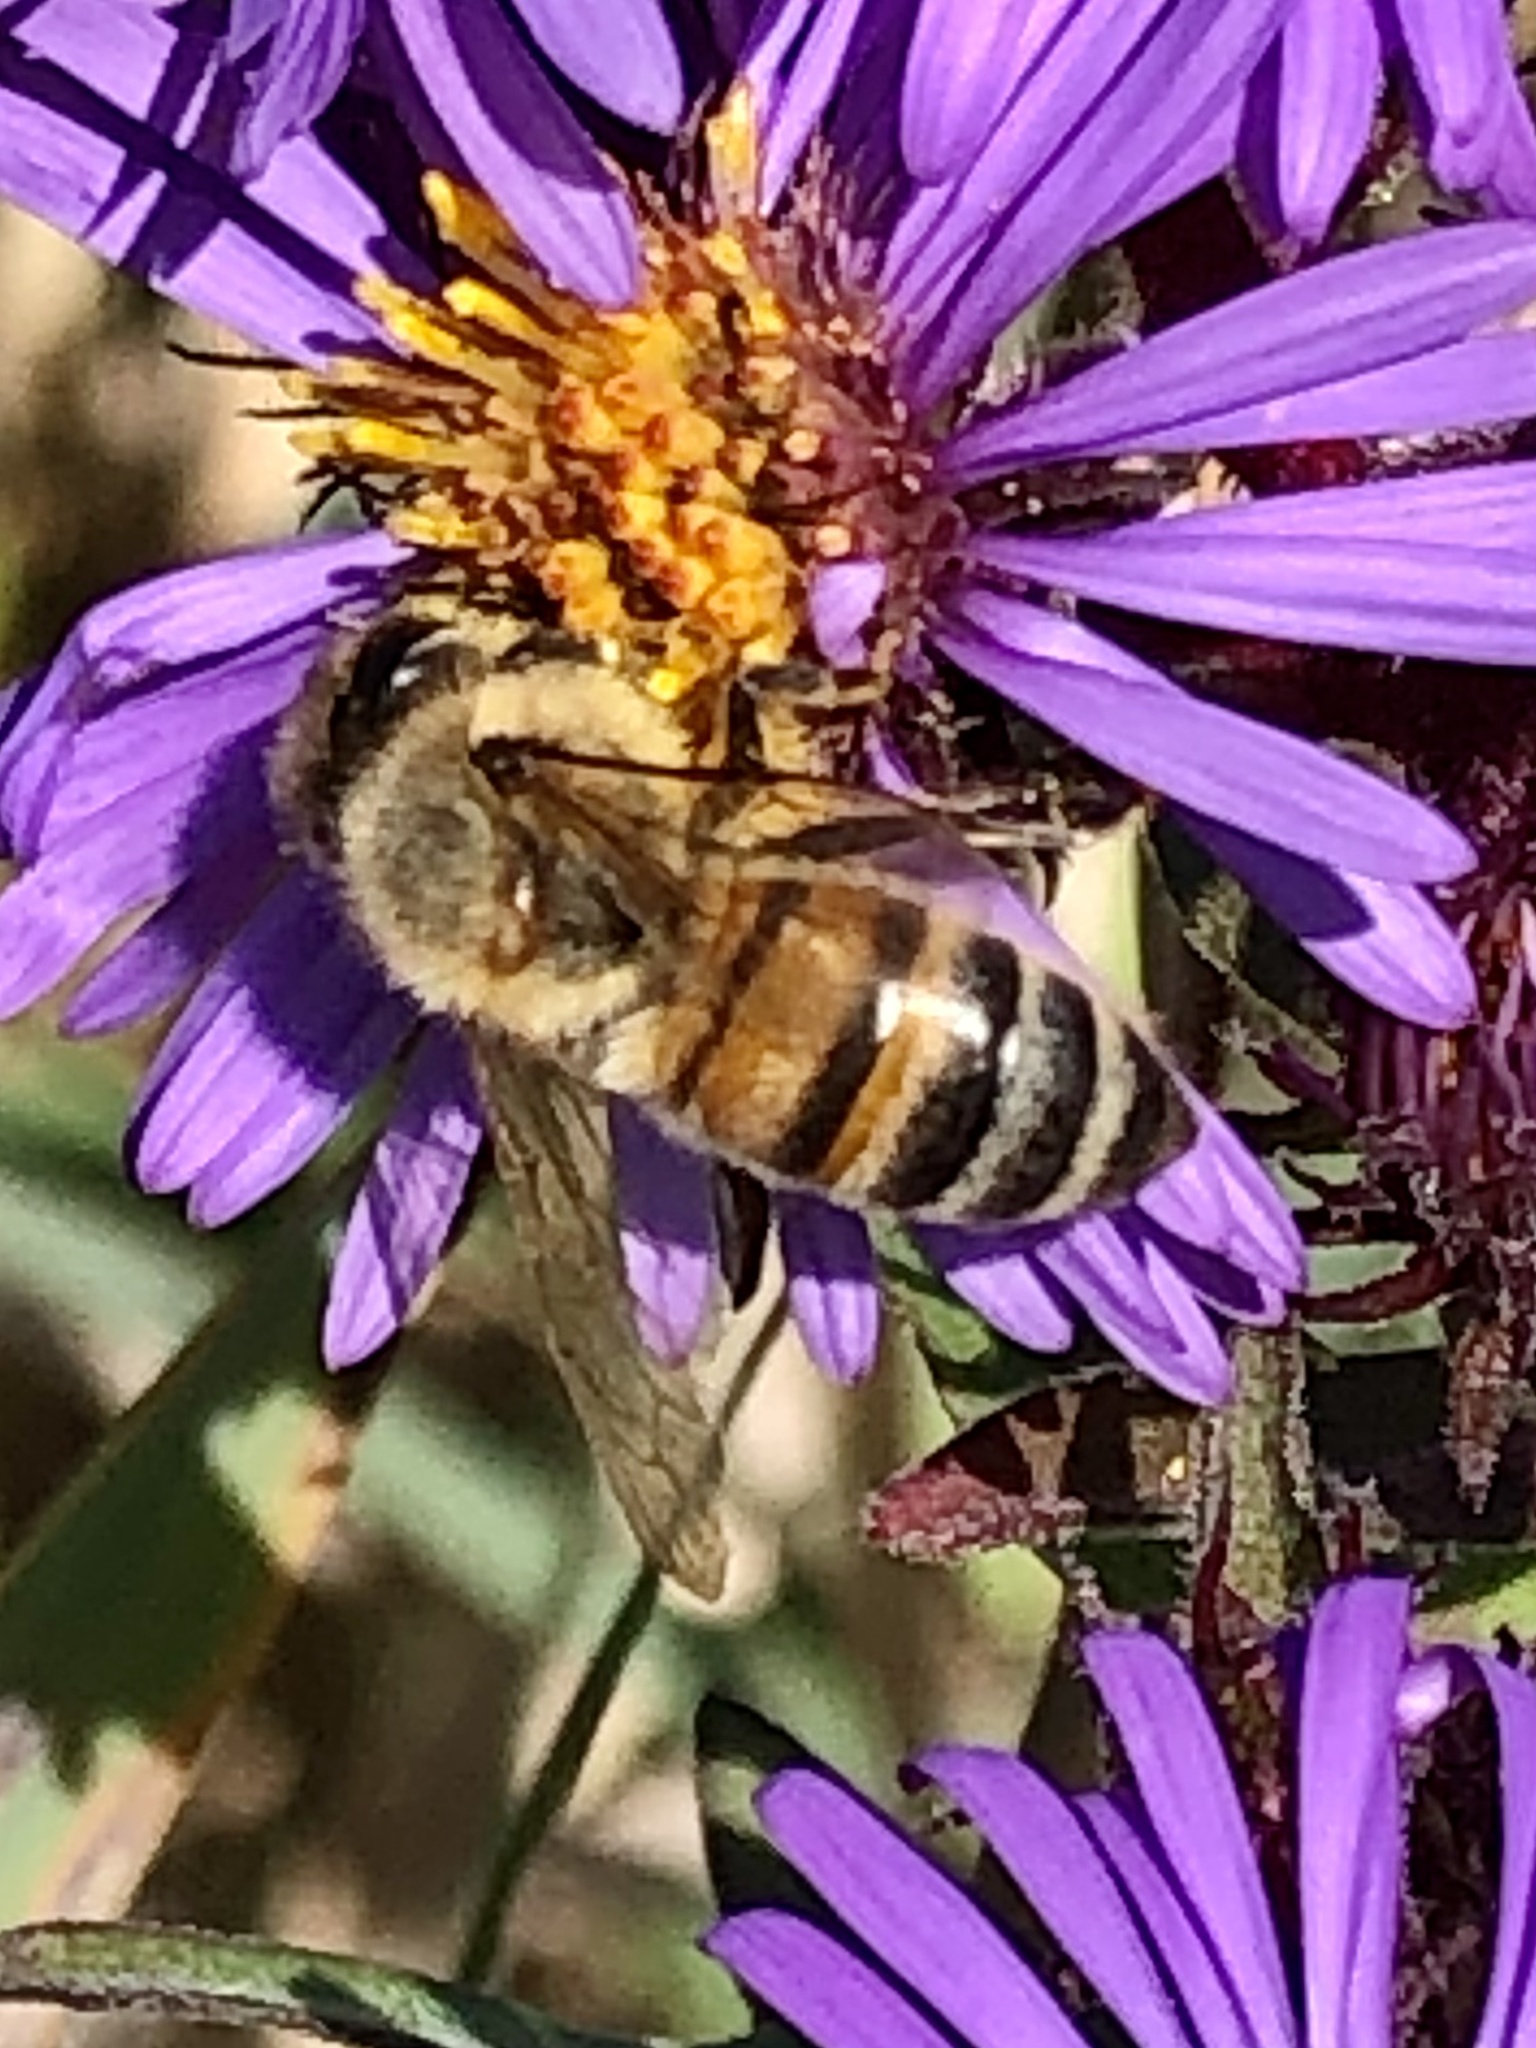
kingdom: Animalia
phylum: Arthropoda
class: Insecta
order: Hymenoptera
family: Apidae
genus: Apis
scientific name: Apis mellifera
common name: Honey bee
